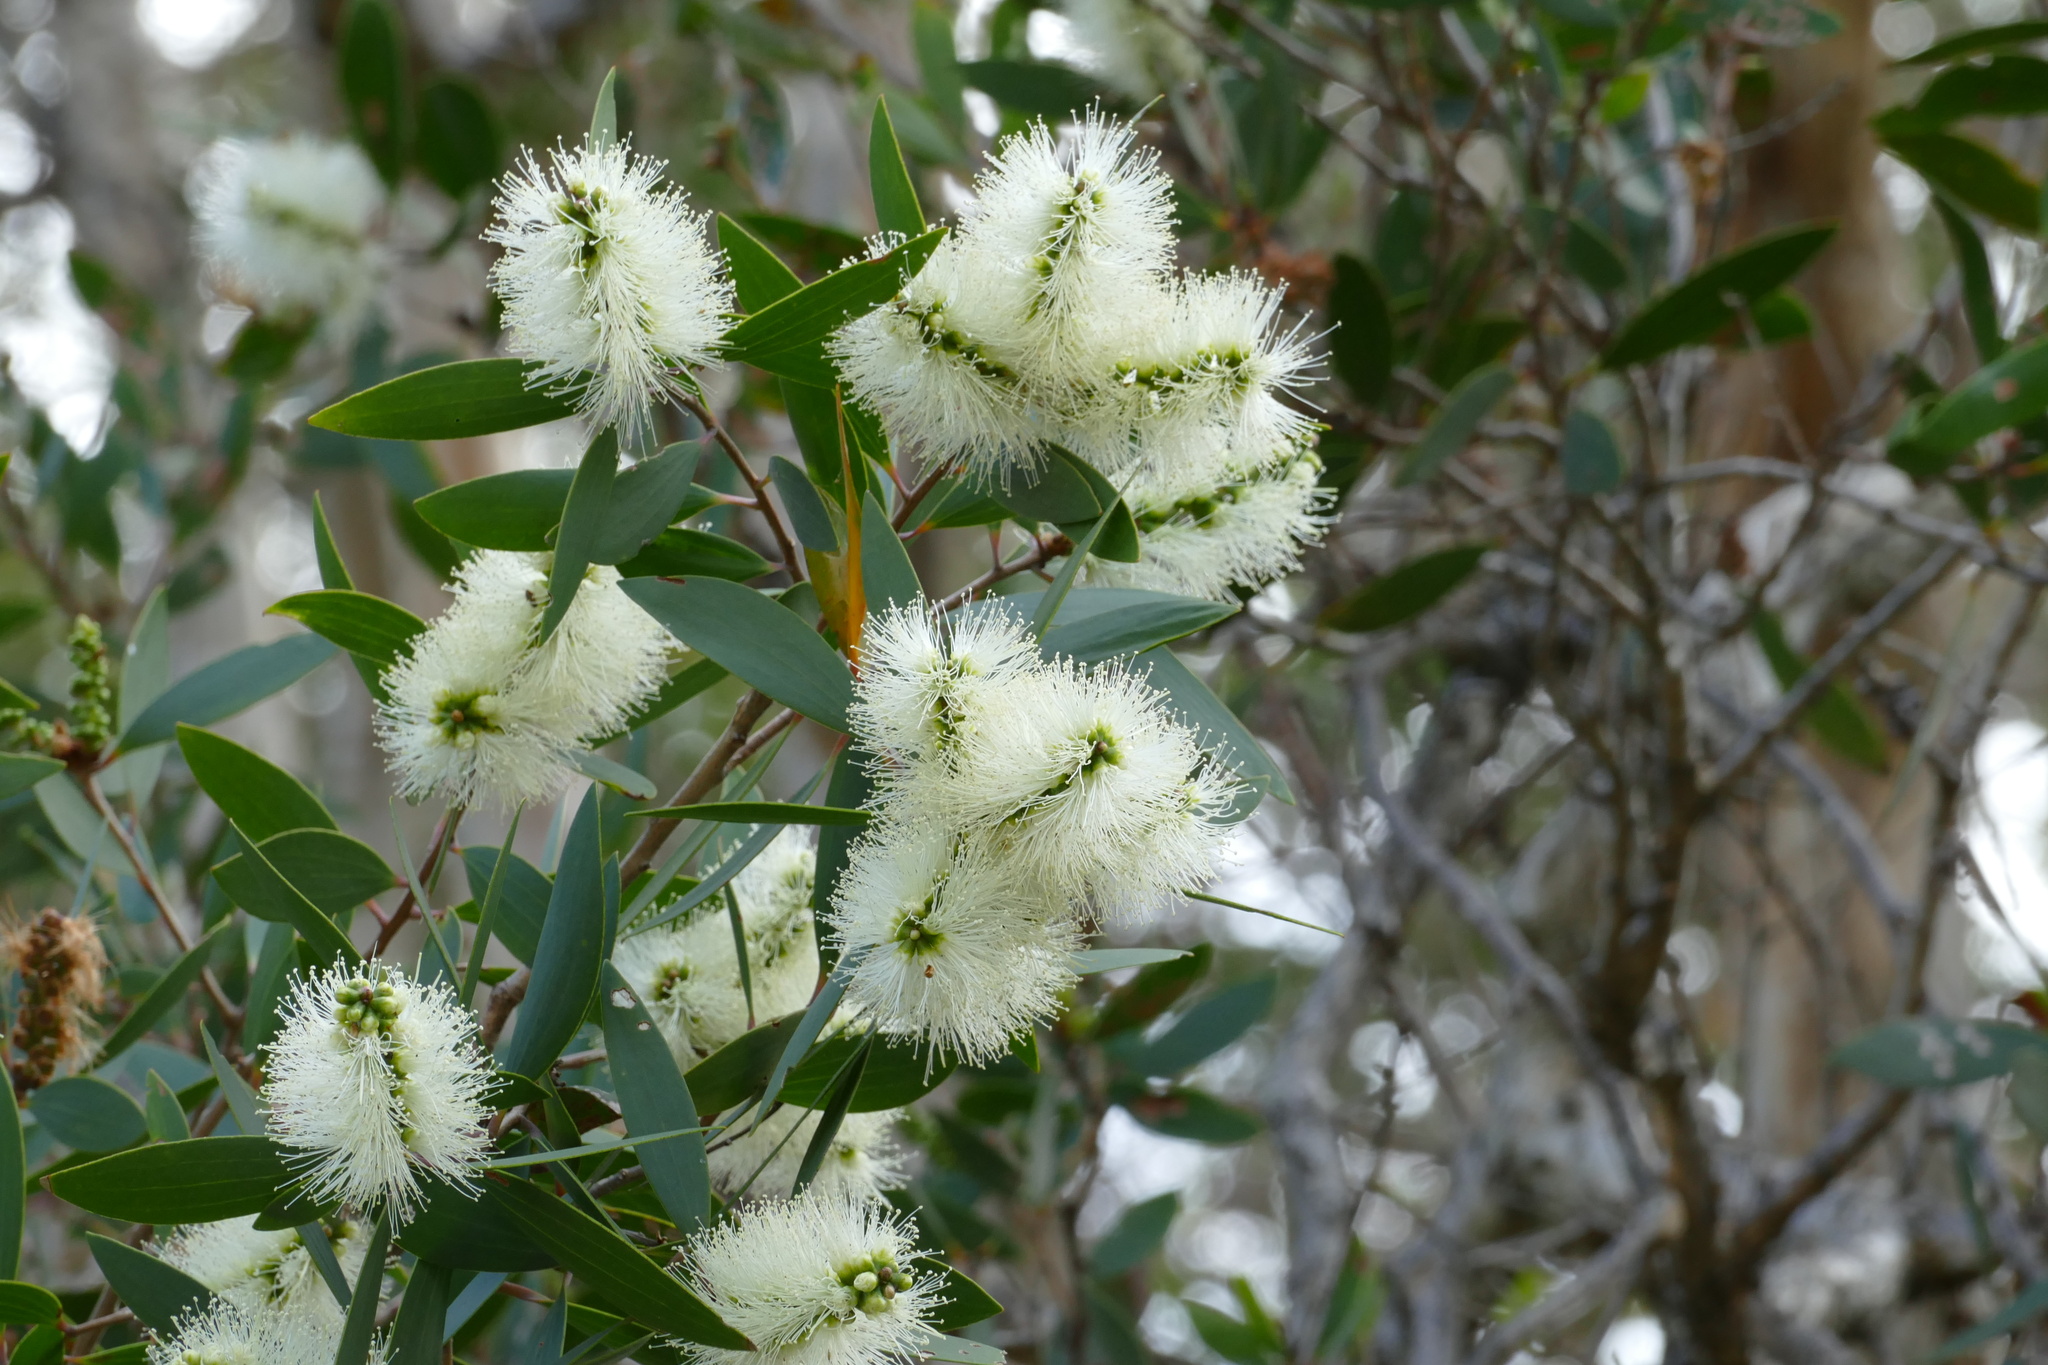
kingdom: Plantae
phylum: Tracheophyta
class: Magnoliopsida
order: Myrtales
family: Myrtaceae
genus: Melaleuca
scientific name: Melaleuca quinquenervia
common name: Punktree
